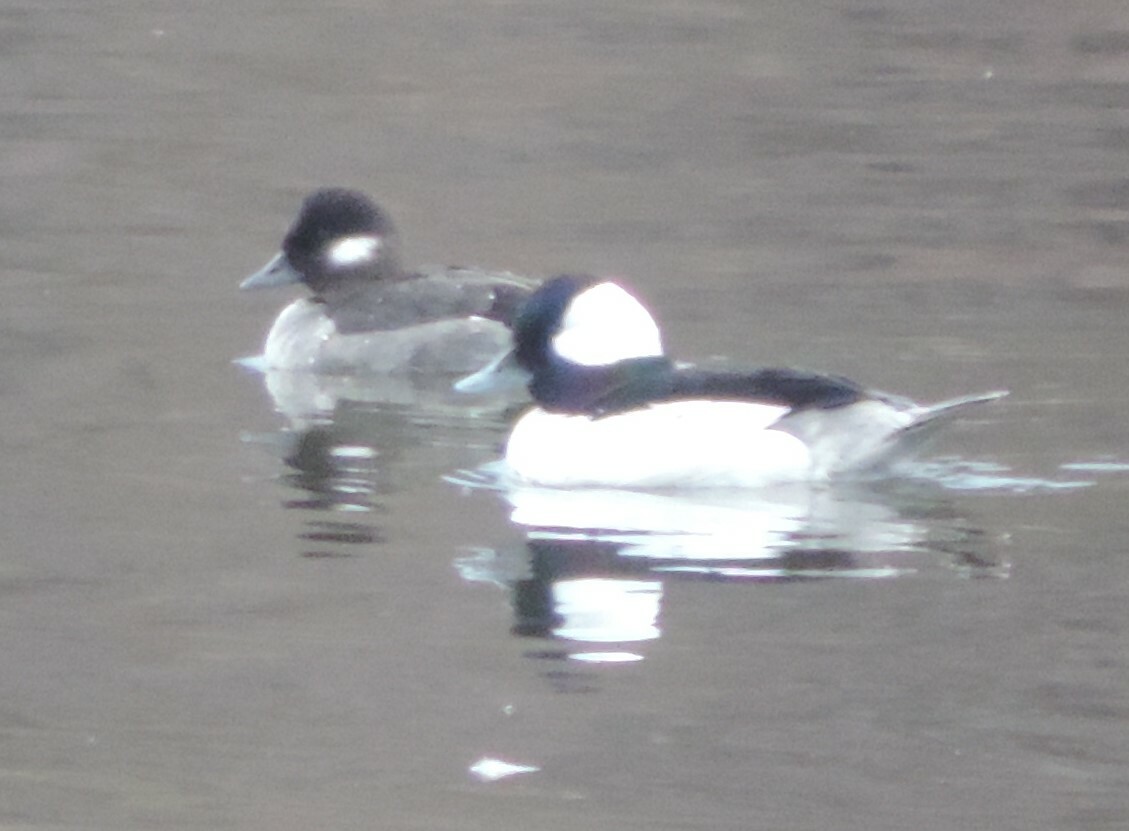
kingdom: Animalia
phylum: Chordata
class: Aves
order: Anseriformes
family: Anatidae
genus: Bucephala
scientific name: Bucephala albeola
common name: Bufflehead
